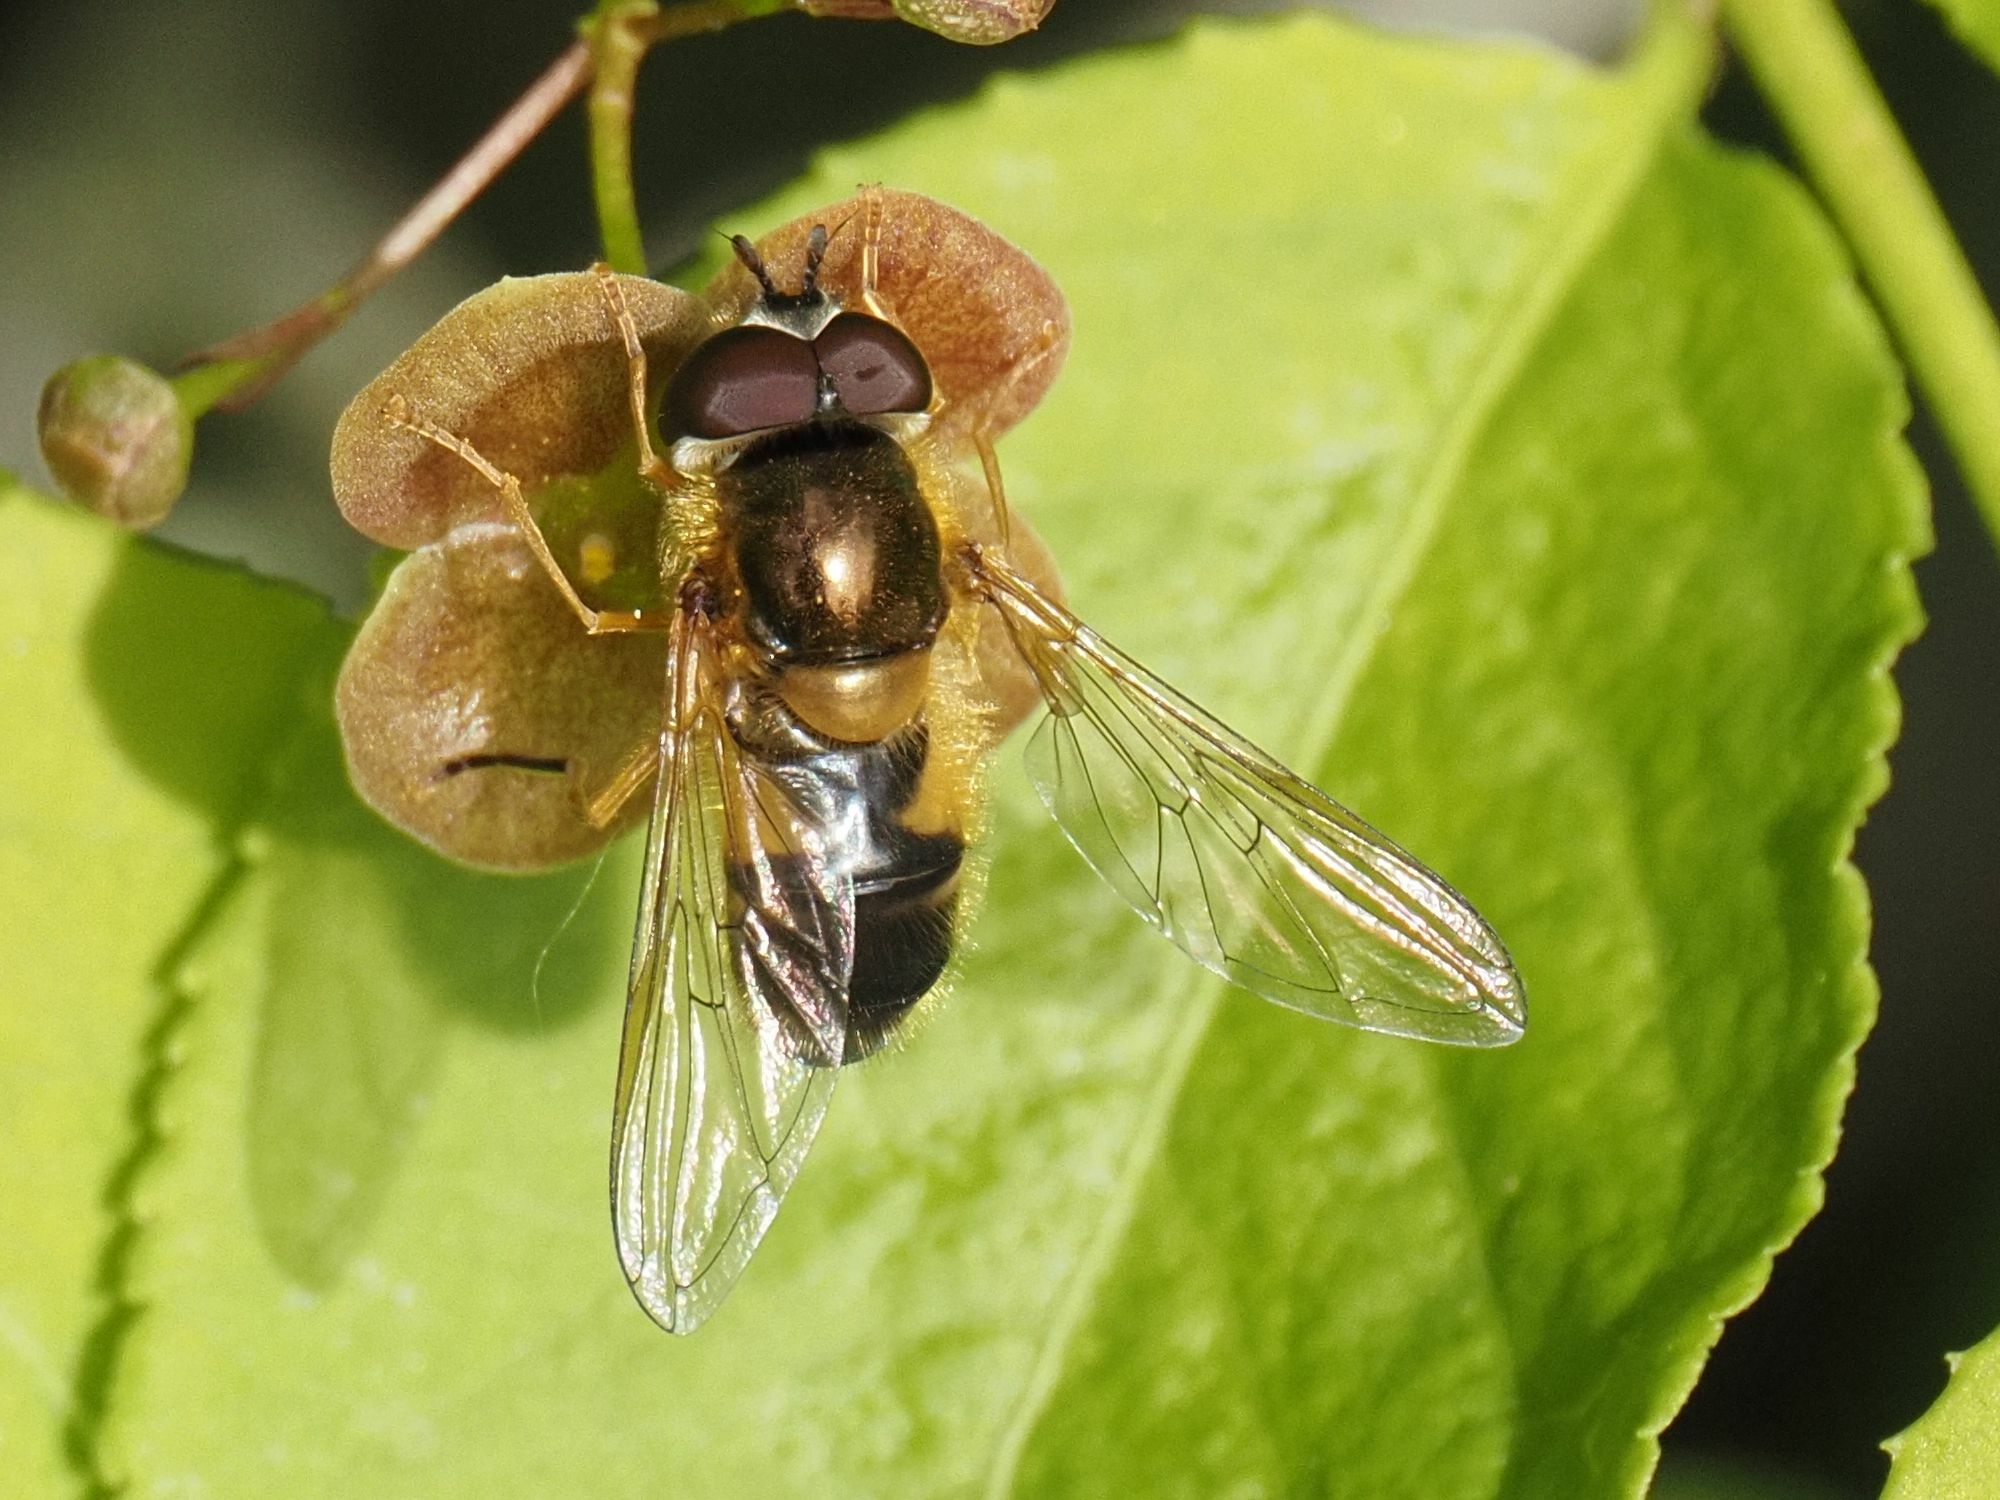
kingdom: Animalia
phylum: Arthropoda
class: Insecta
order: Diptera
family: Syrphidae
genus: Epistrophe
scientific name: Epistrophe eligans
